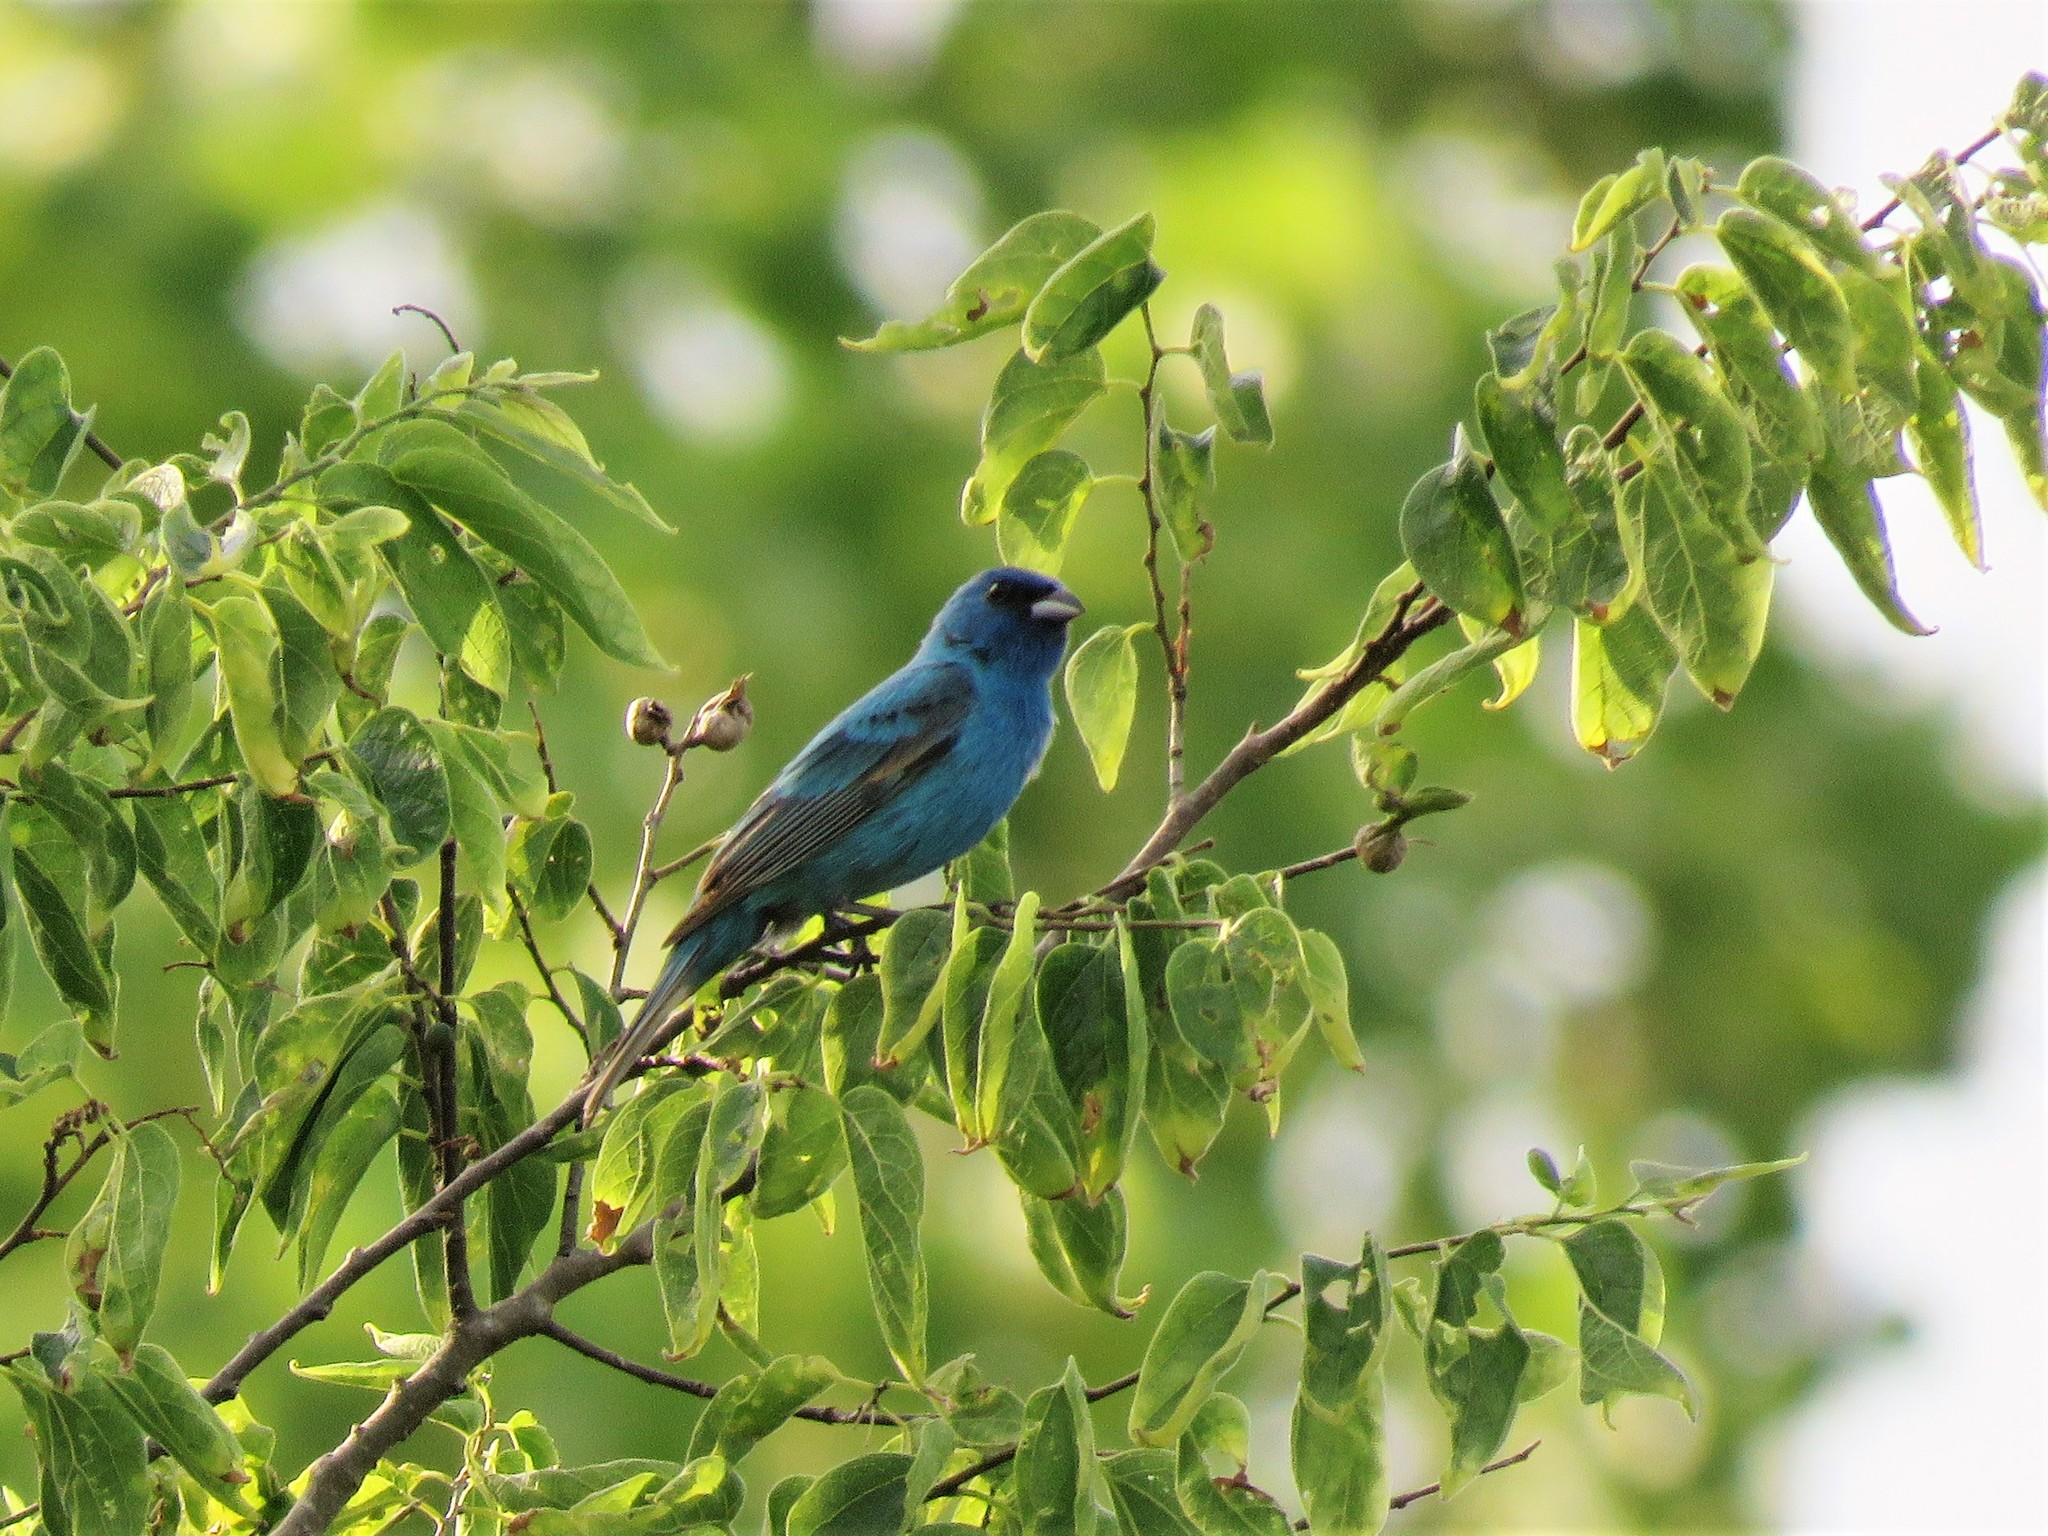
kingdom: Animalia
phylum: Chordata
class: Aves
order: Passeriformes
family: Cardinalidae
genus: Passerina
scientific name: Passerina cyanea
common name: Indigo bunting
